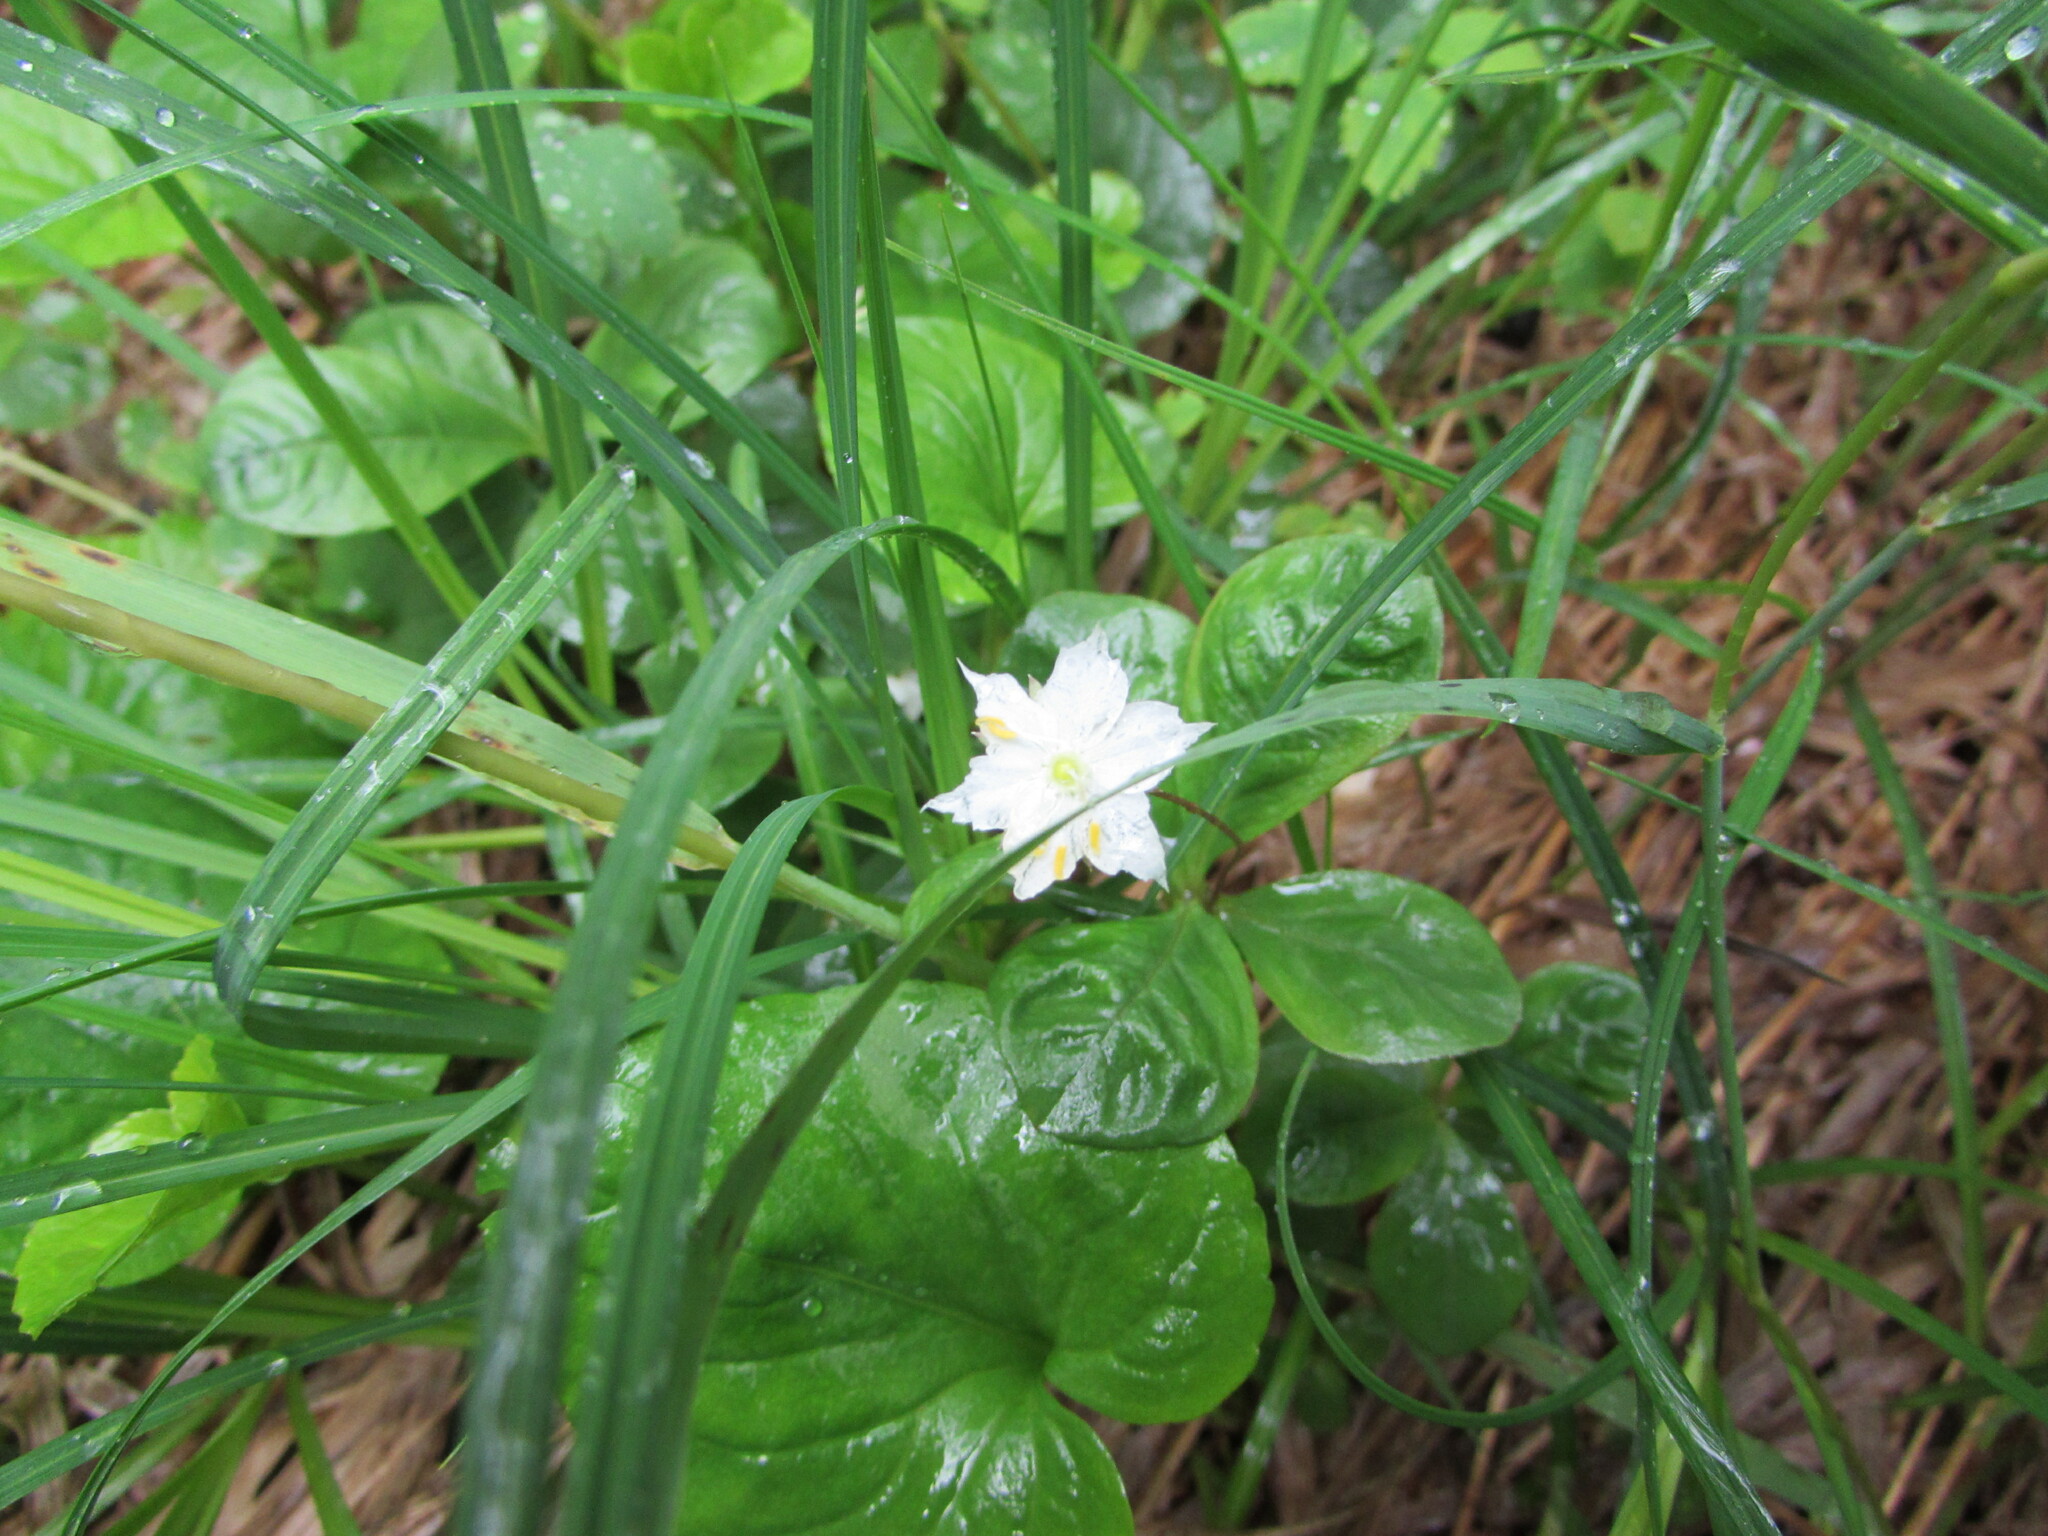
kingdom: Plantae
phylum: Tracheophyta
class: Magnoliopsida
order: Ericales
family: Primulaceae
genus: Lysimachia
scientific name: Lysimachia europaea
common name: Arctic starflower
